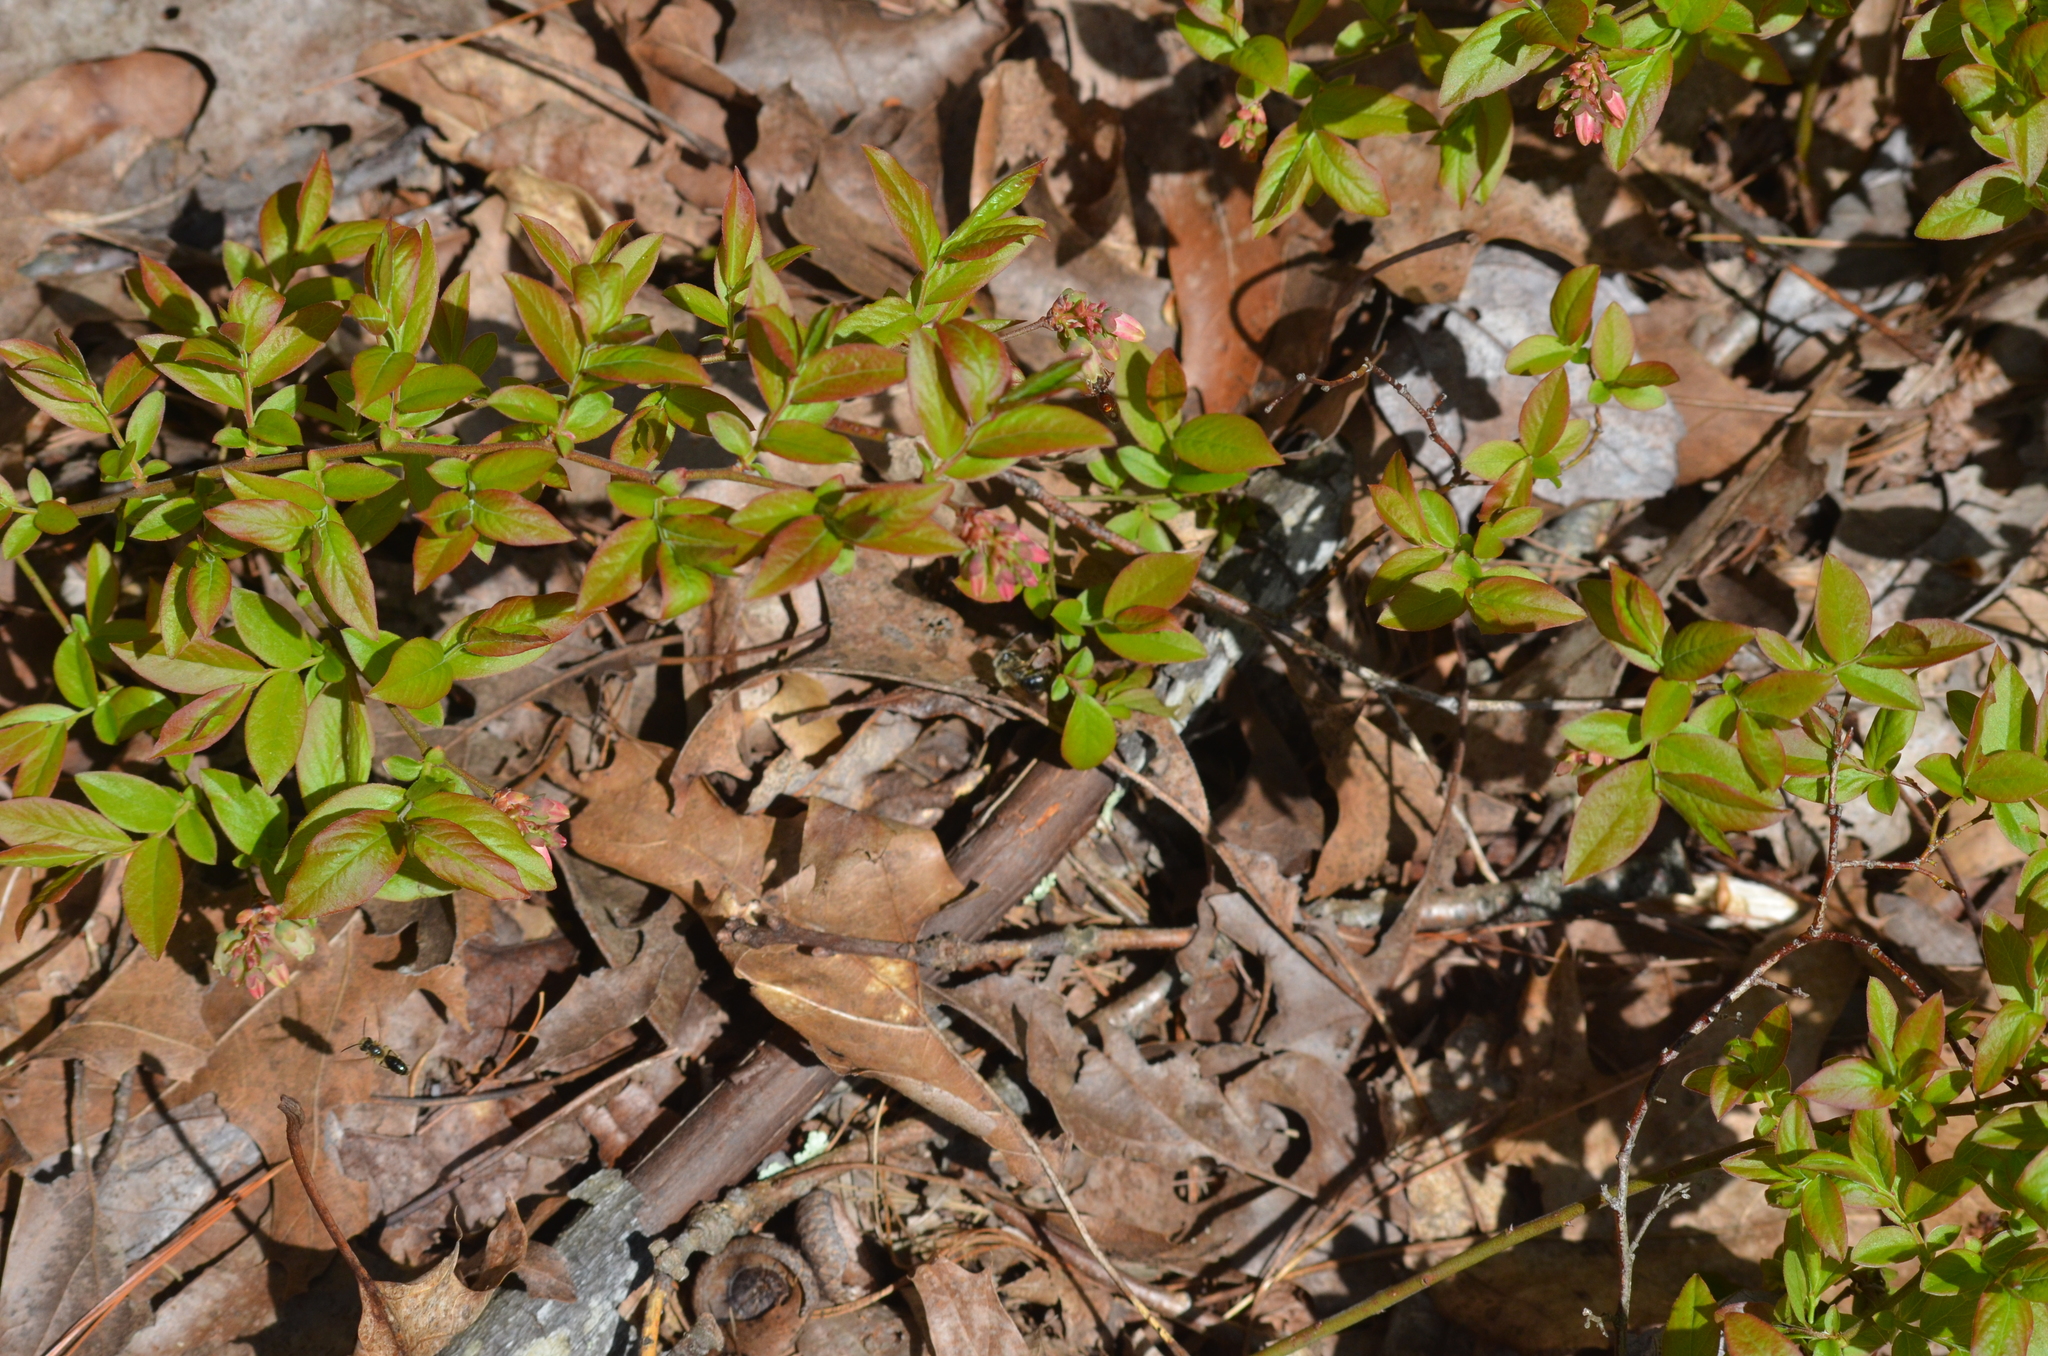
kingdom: Plantae
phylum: Tracheophyta
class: Magnoliopsida
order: Ericales
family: Ericaceae
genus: Vaccinium
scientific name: Vaccinium angustifolium
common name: Early lowbush blueberry
